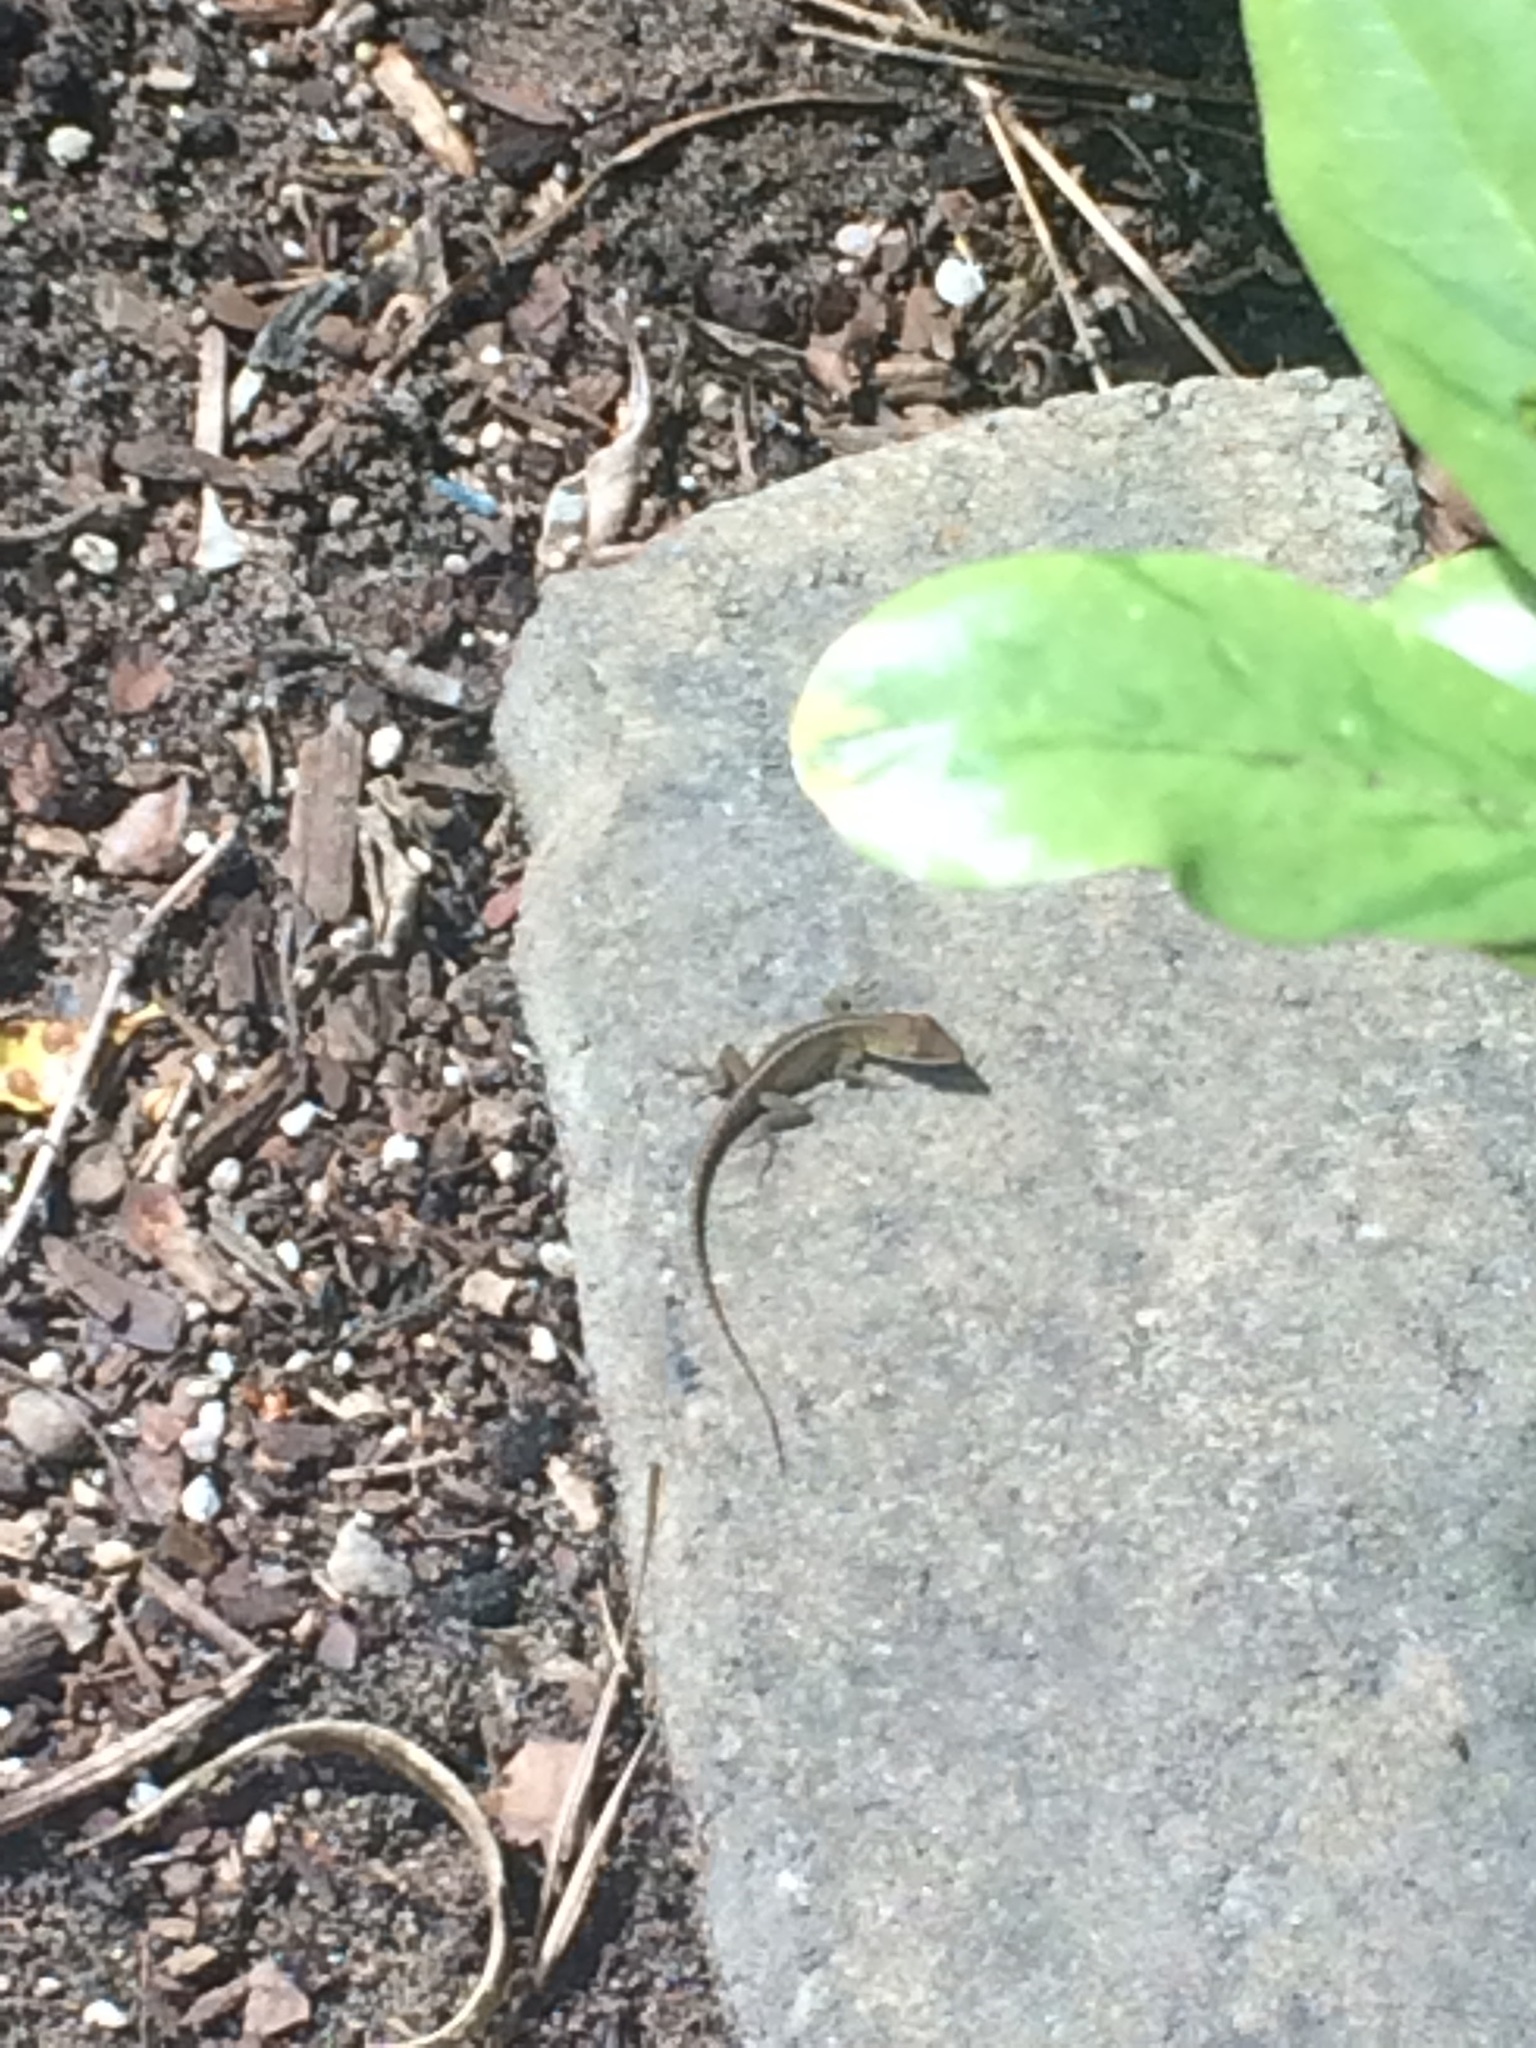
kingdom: Animalia
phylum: Chordata
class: Squamata
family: Dactyloidae
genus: Anolis
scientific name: Anolis carolinensis
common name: Green anole
